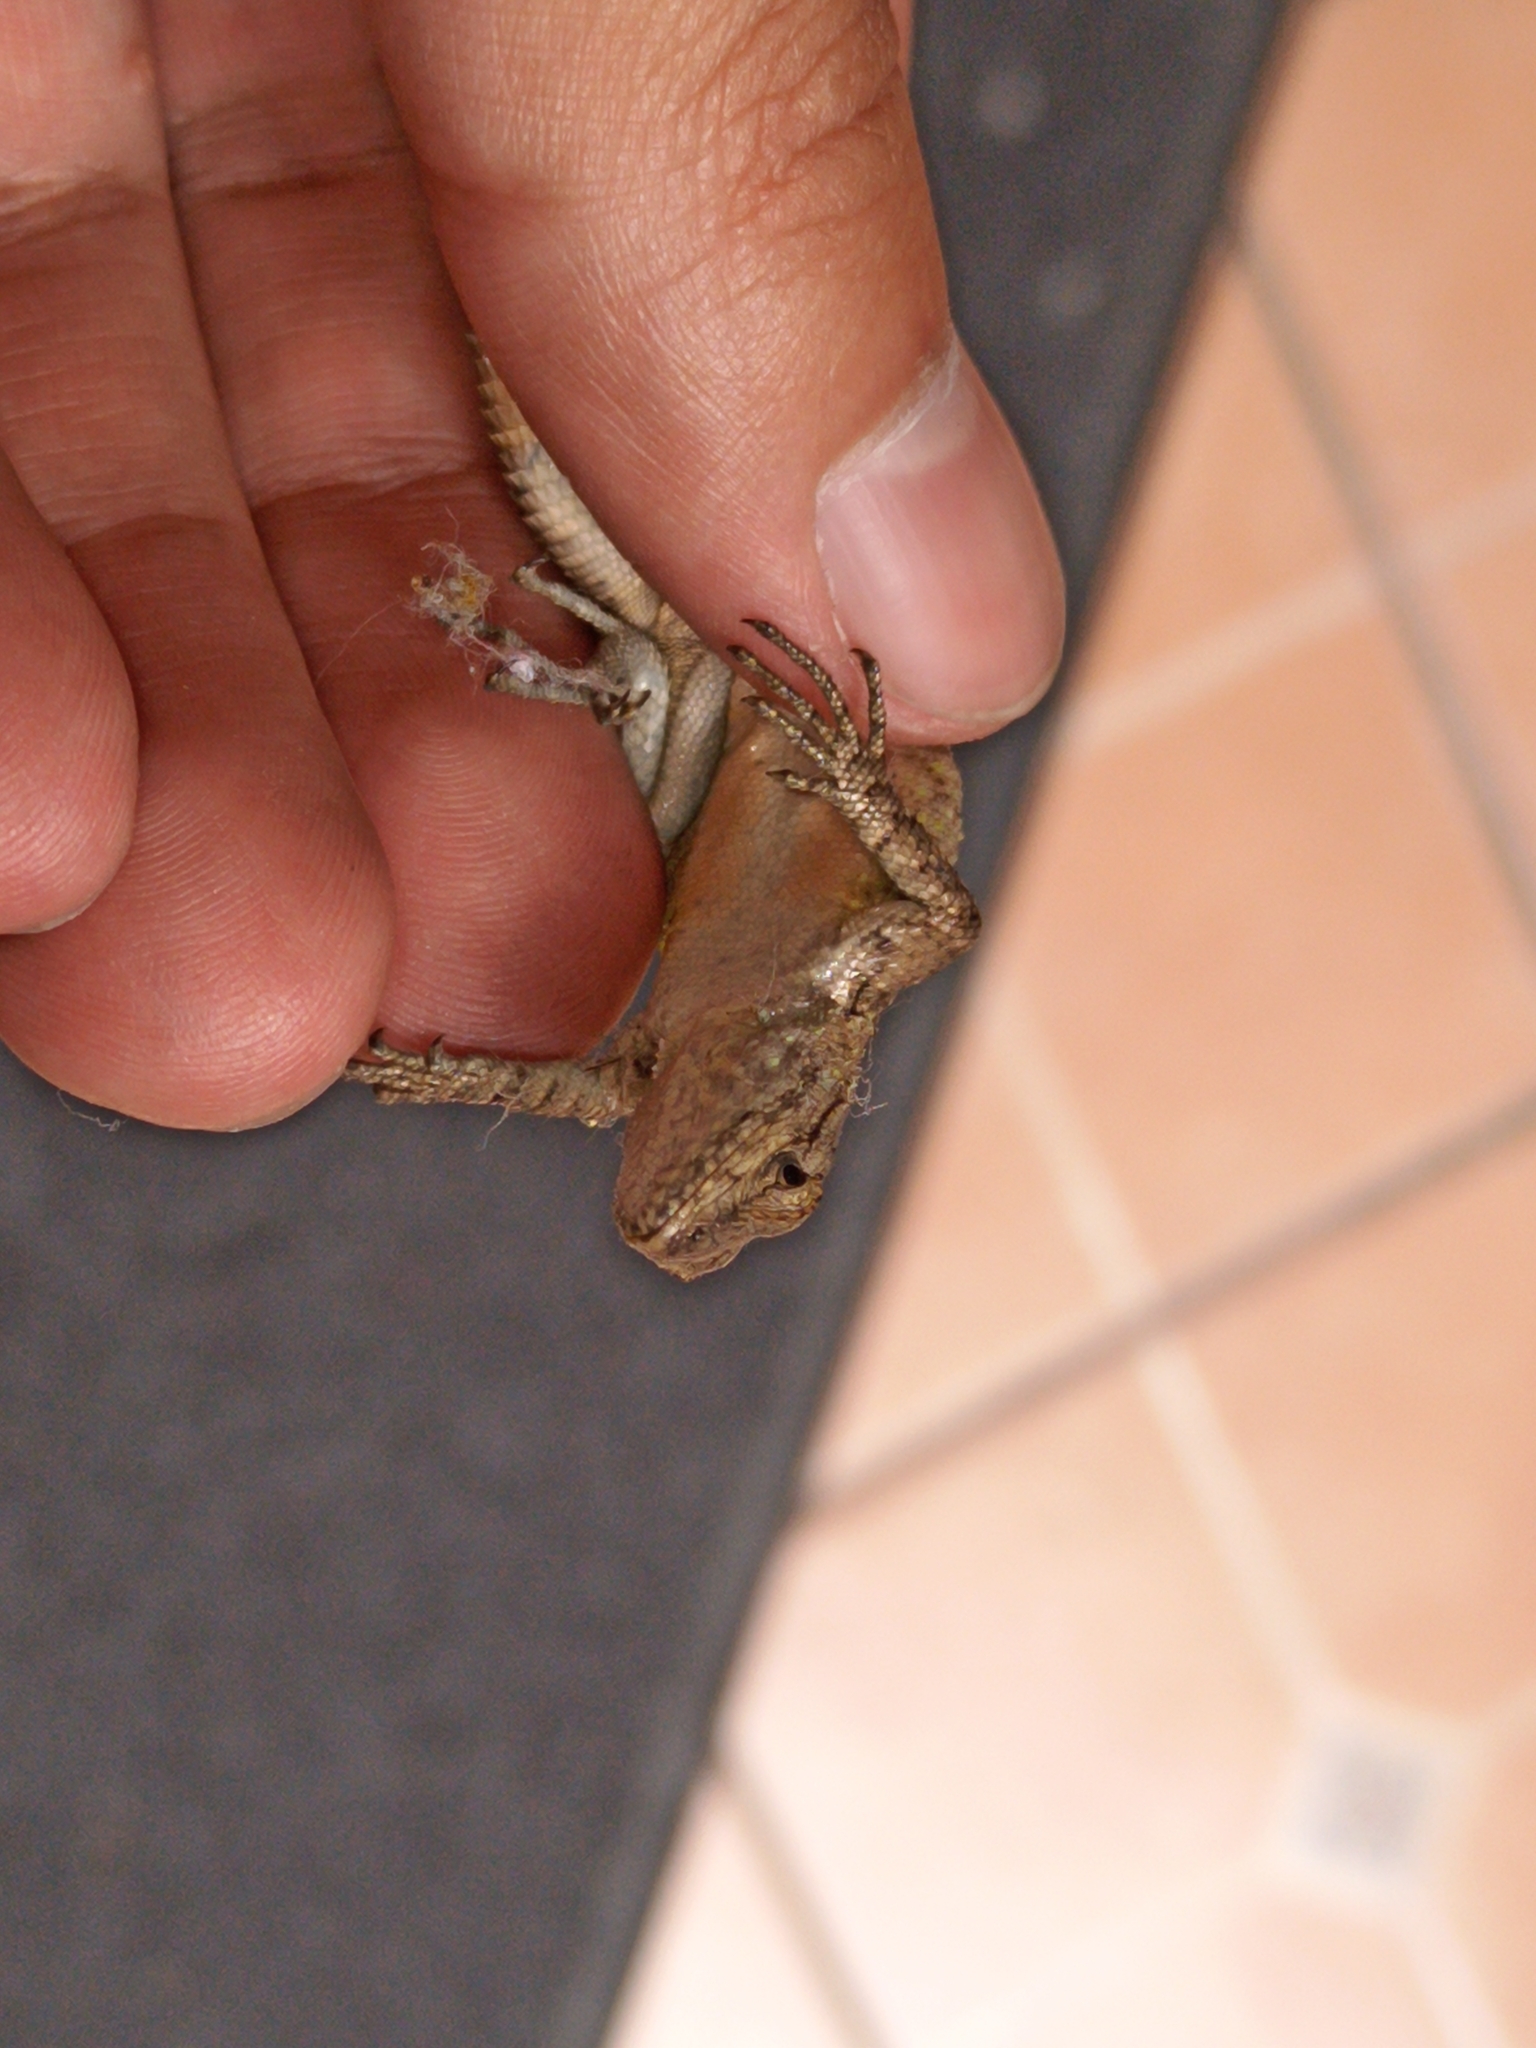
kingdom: Animalia
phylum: Chordata
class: Squamata
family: Phrynosomatidae
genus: Sceloporus
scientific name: Sceloporus grammicus
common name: Mesquite lizard
